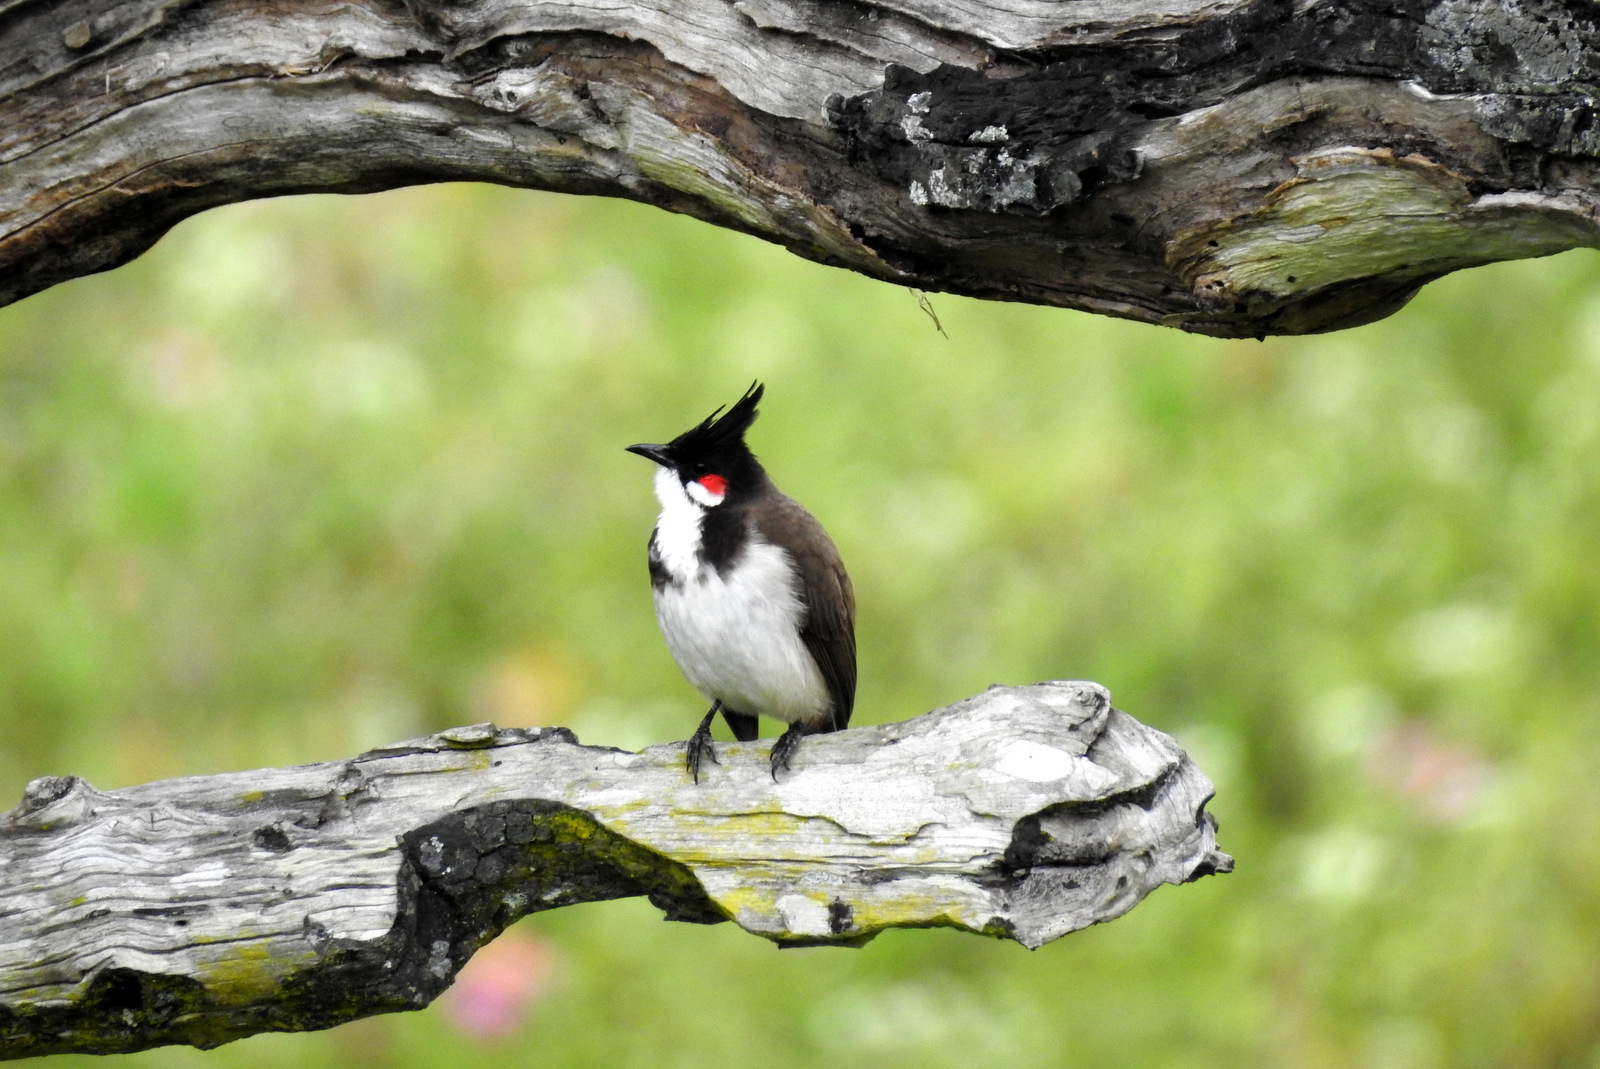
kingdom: Animalia
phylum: Chordata
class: Aves
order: Passeriformes
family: Pycnonotidae
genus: Pycnonotus
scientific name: Pycnonotus jocosus
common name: Red-whiskered bulbul
